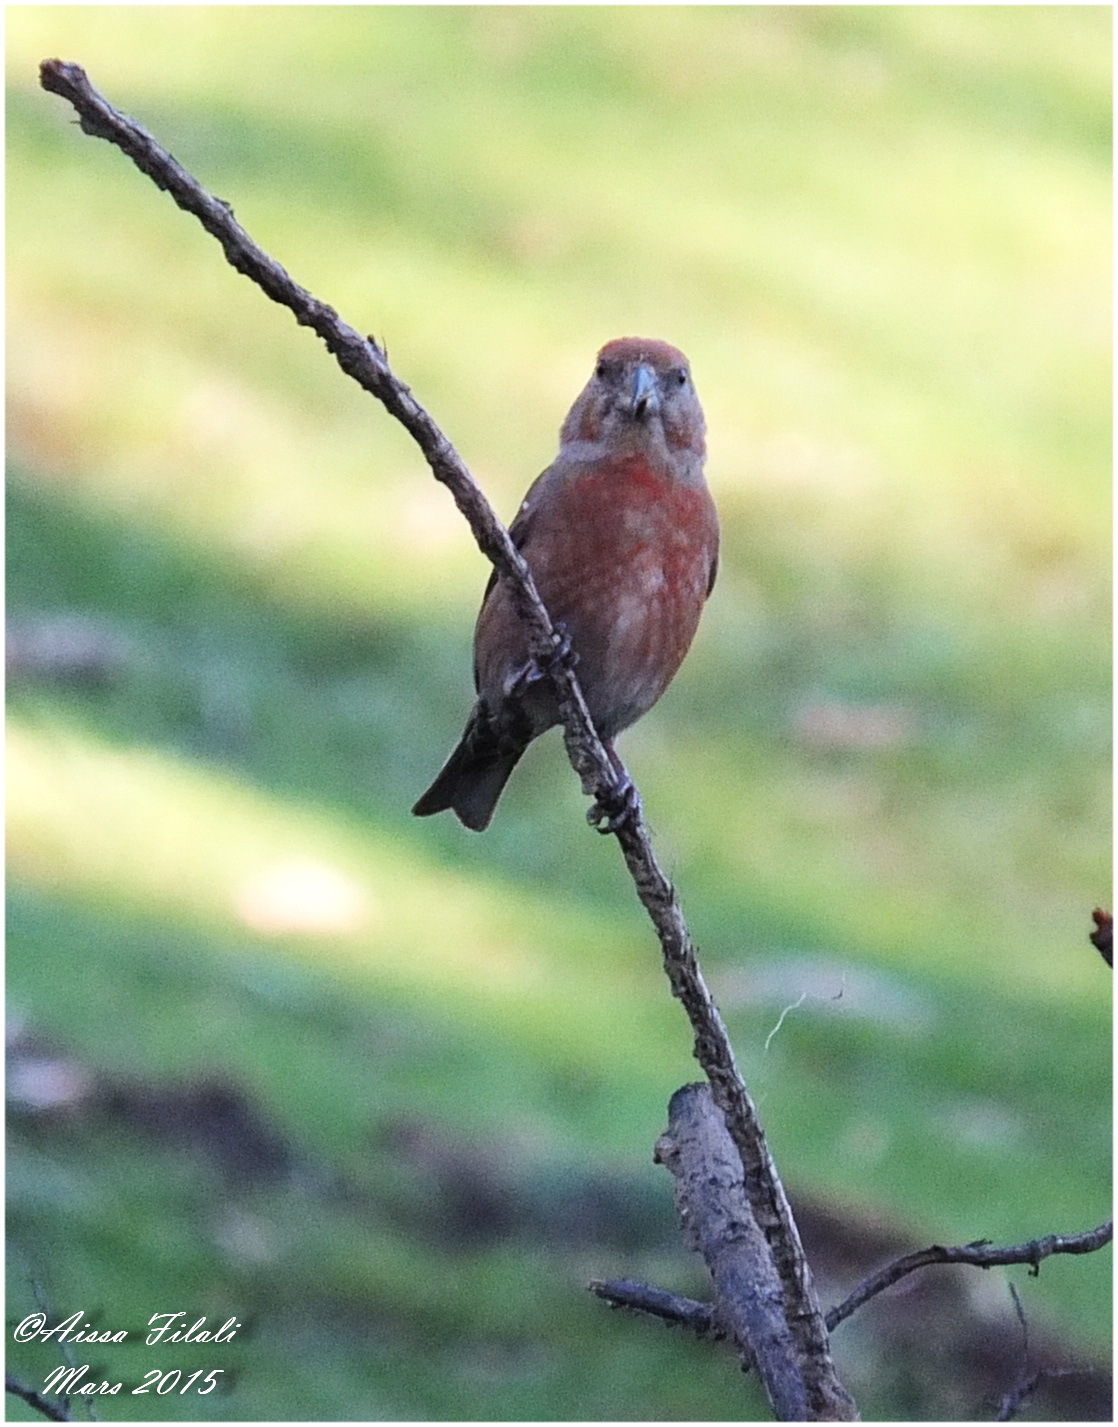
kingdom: Animalia
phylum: Chordata
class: Aves
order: Passeriformes
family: Fringillidae
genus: Loxia
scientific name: Loxia curvirostra
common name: Red crossbill
